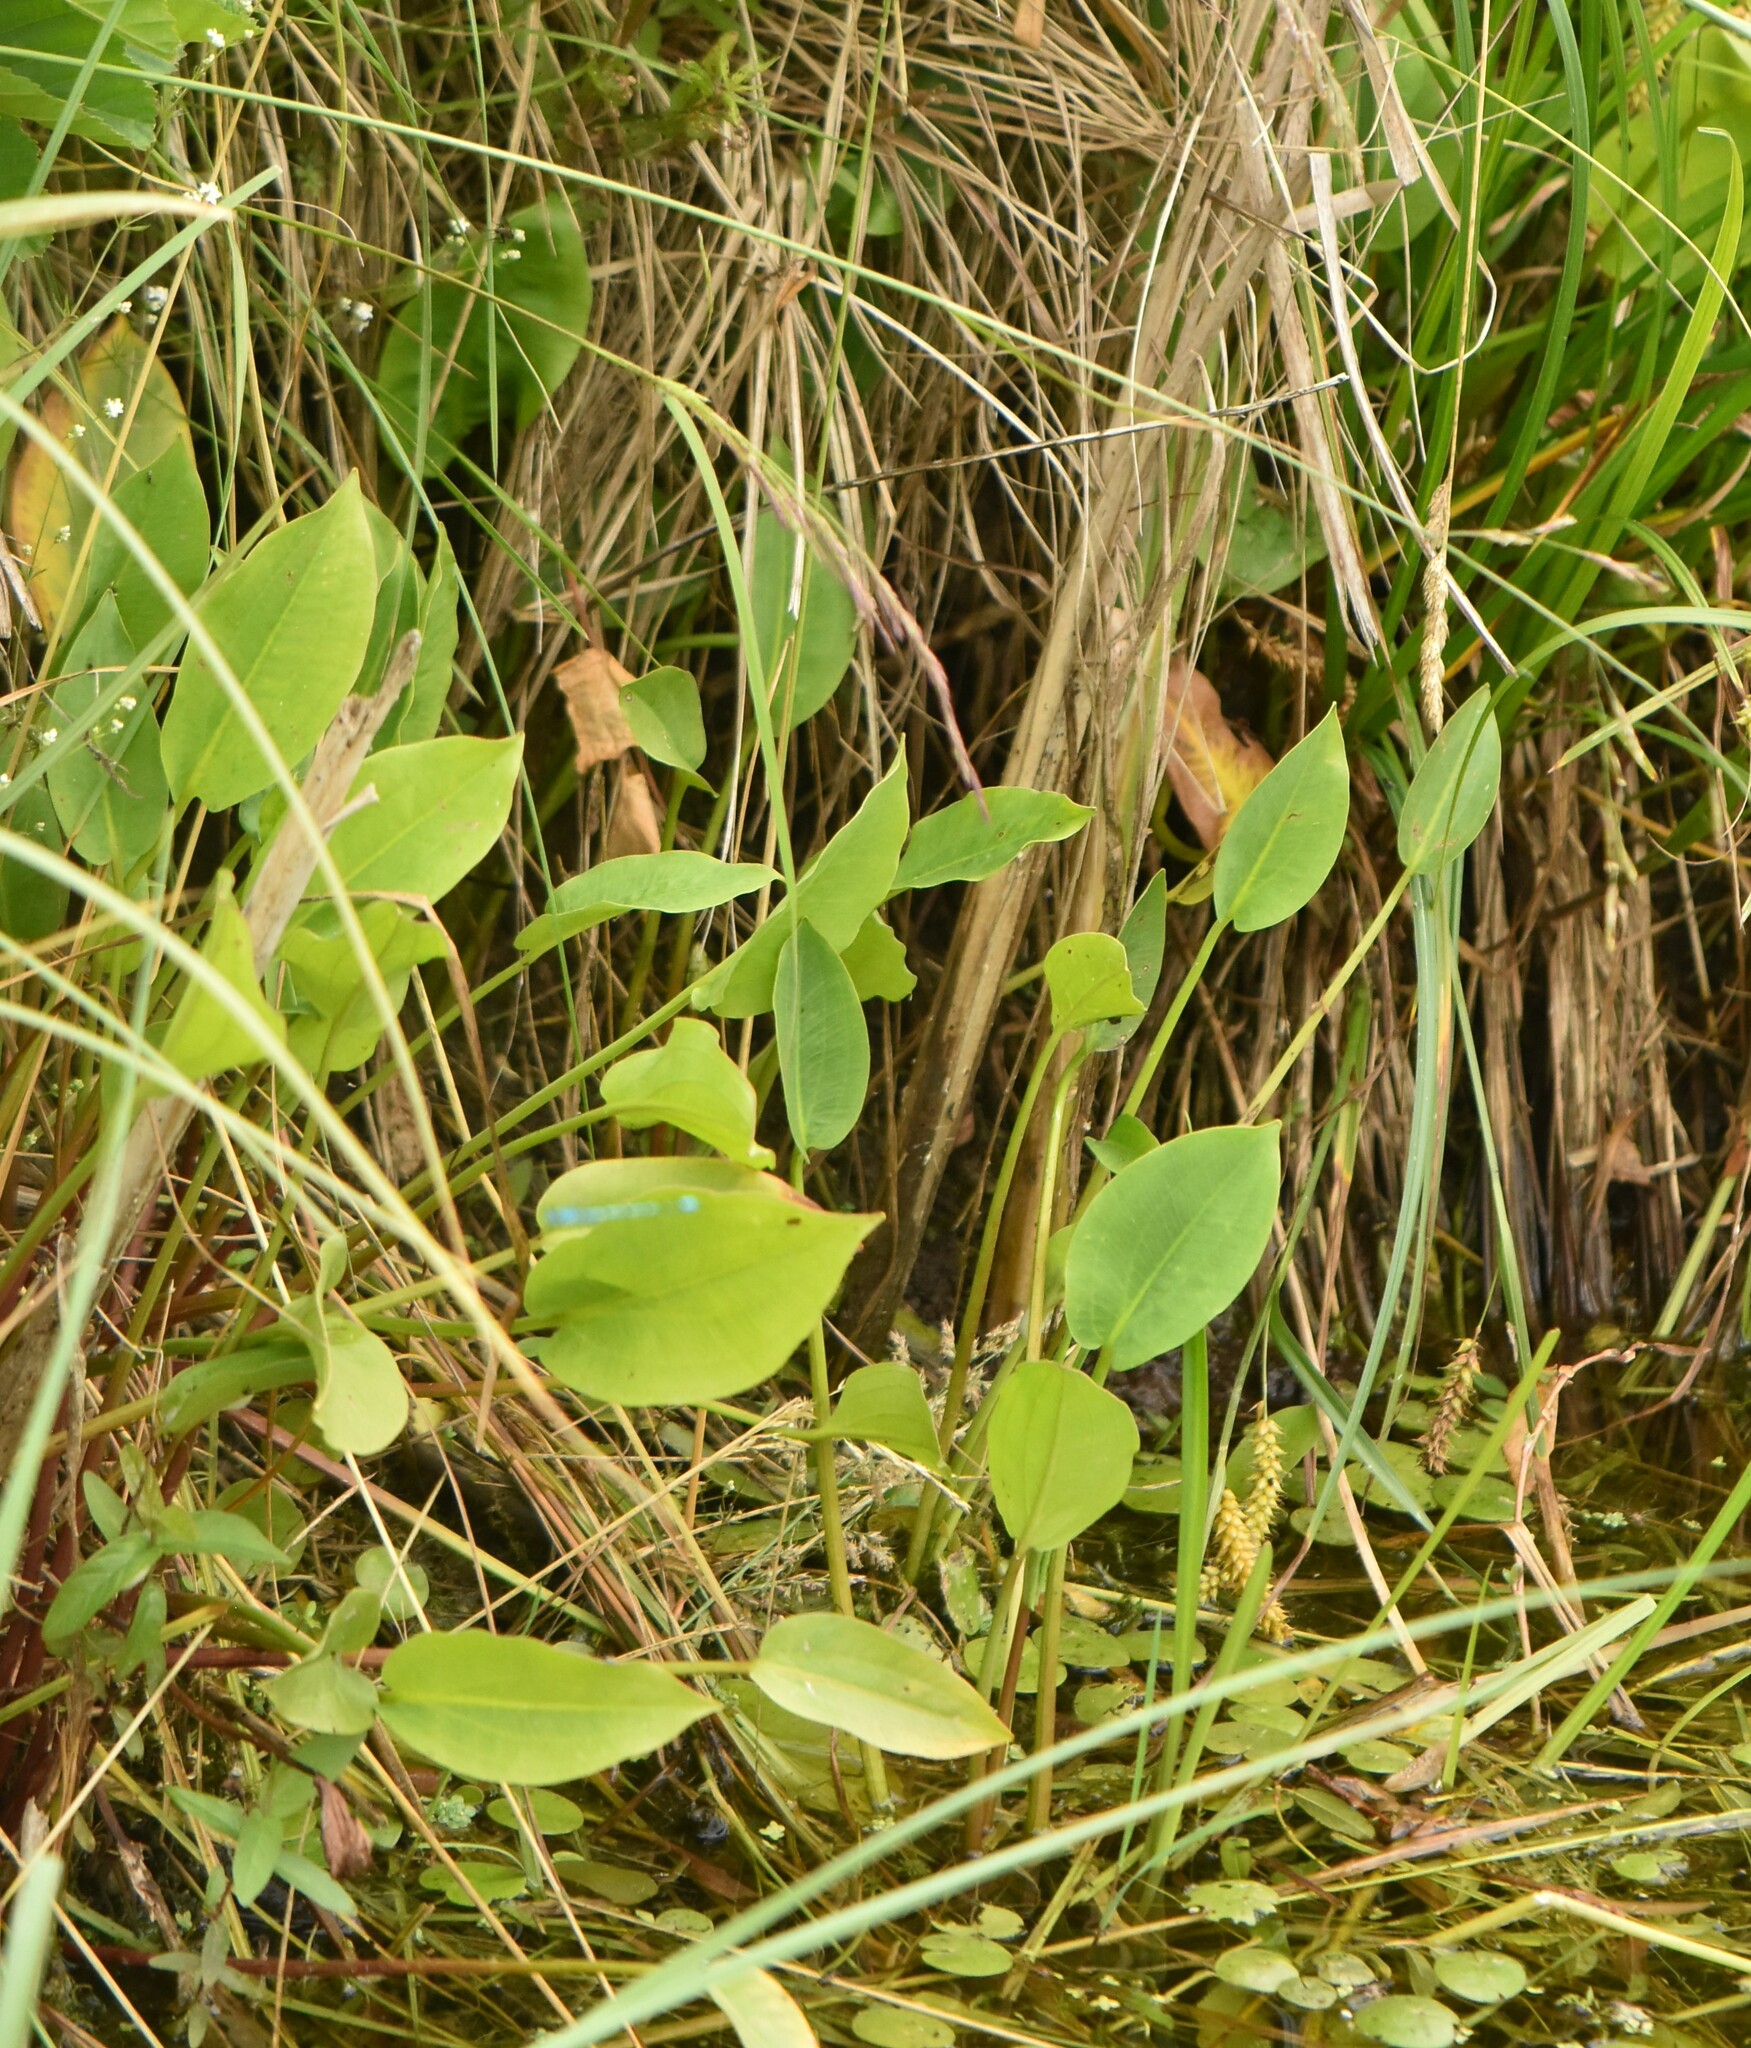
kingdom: Plantae
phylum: Tracheophyta
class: Liliopsida
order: Alismatales
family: Alismataceae
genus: Alisma
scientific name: Alisma plantago-aquatica
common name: Water-plantain
